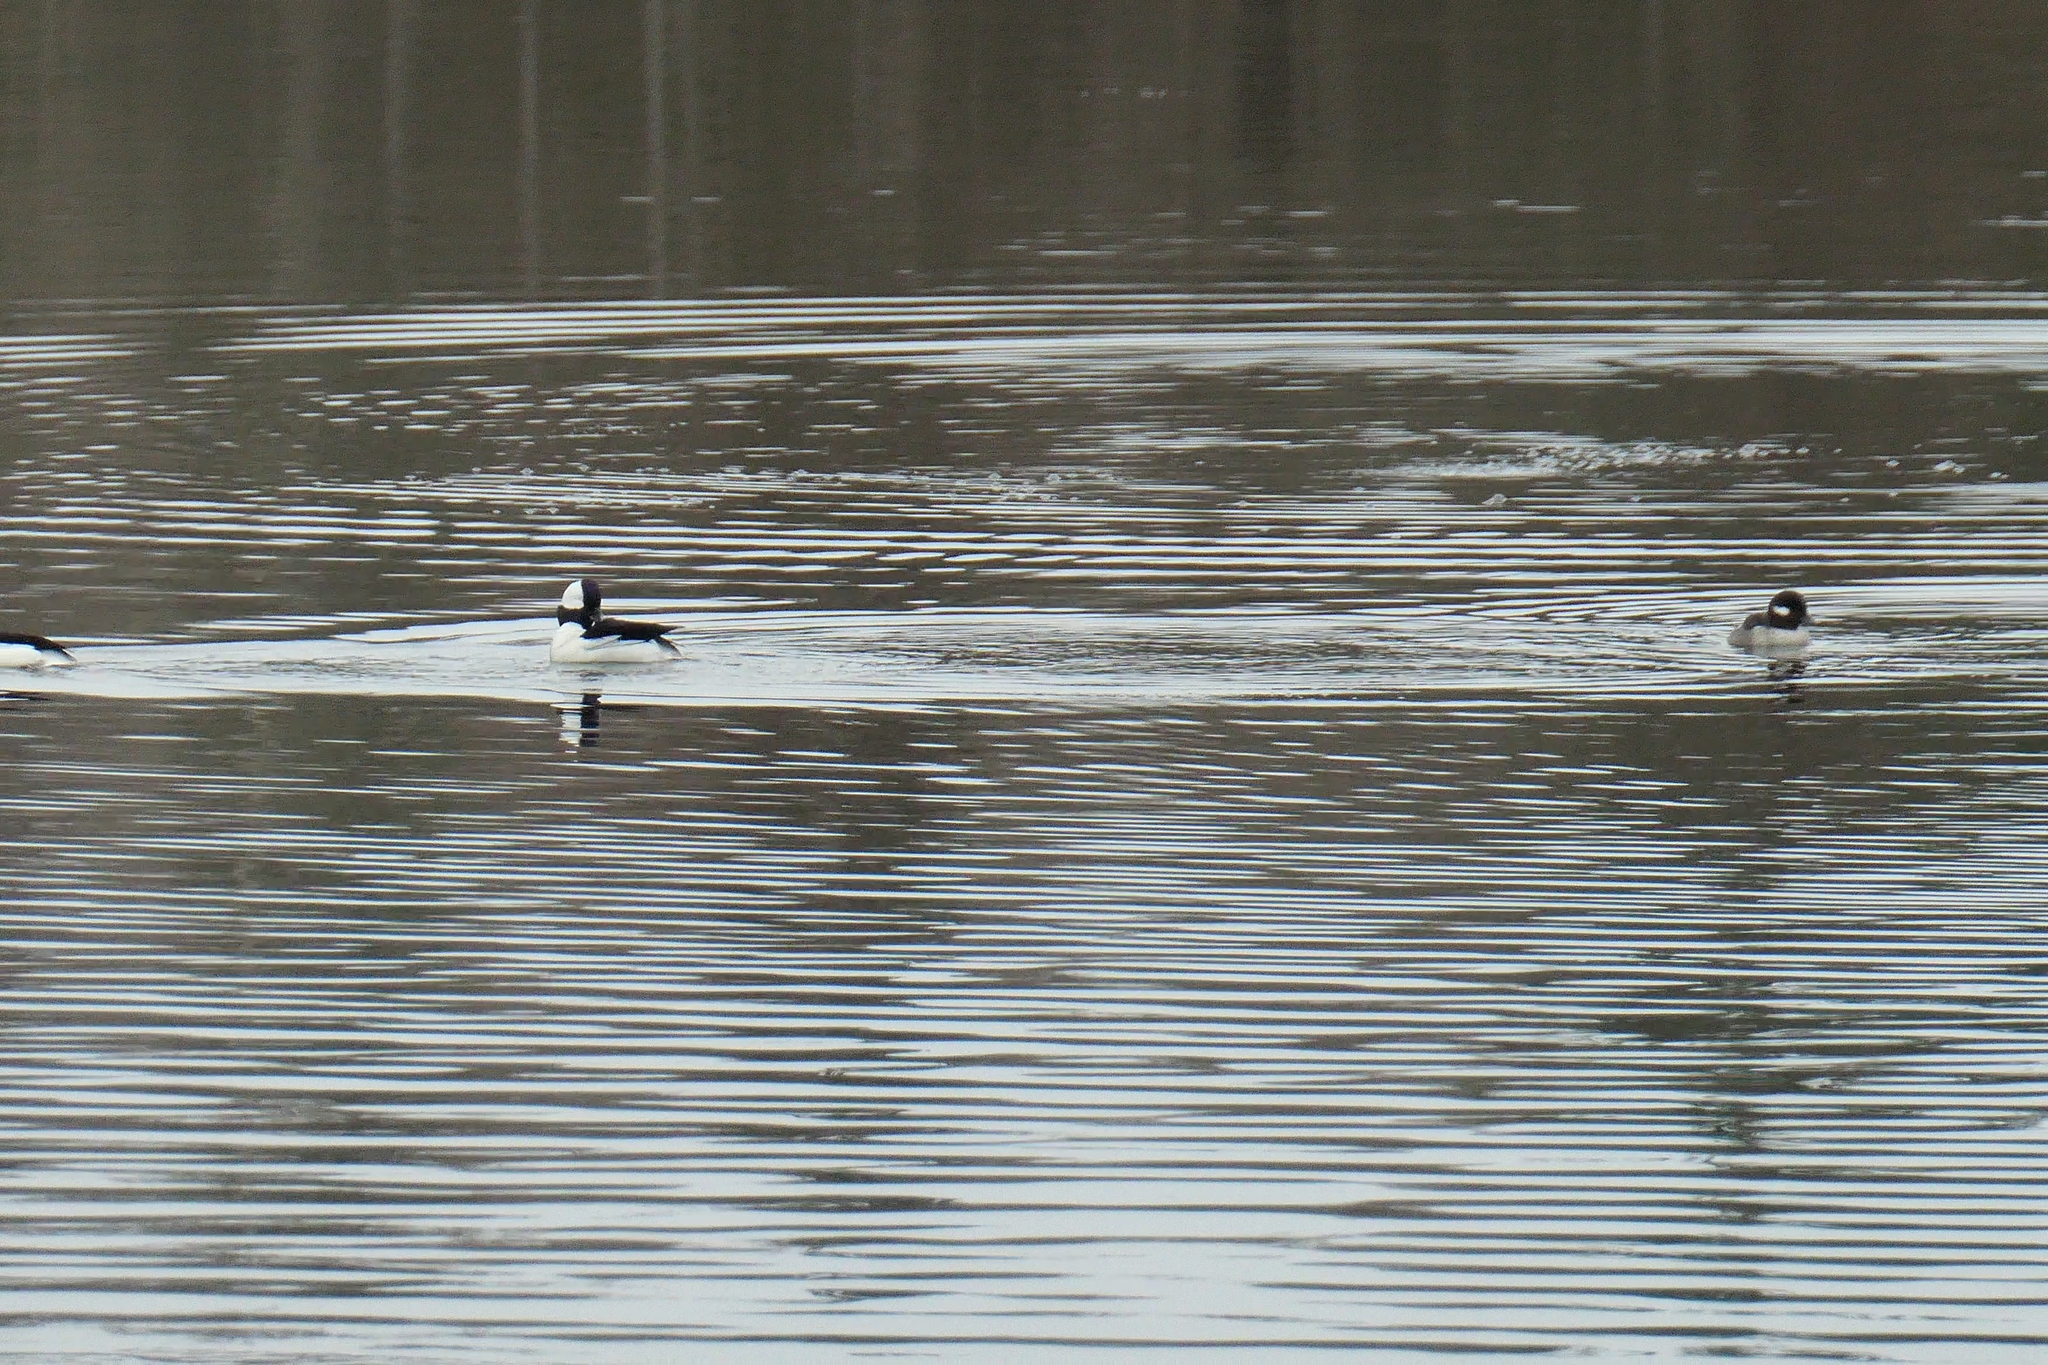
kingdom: Animalia
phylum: Chordata
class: Aves
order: Anseriformes
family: Anatidae
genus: Bucephala
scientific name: Bucephala albeola
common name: Bufflehead
